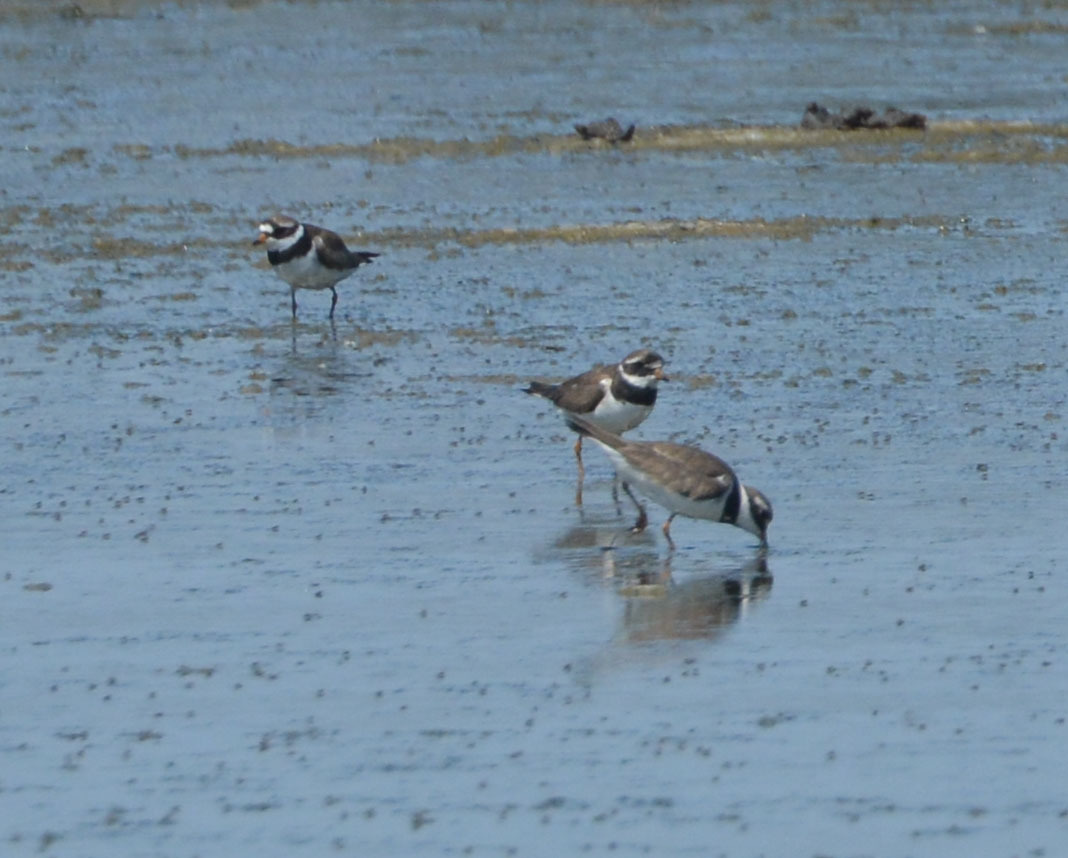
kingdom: Animalia
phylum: Chordata
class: Aves
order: Charadriiformes
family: Charadriidae
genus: Charadrius
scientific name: Charadrius hiaticula
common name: Common ringed plover
